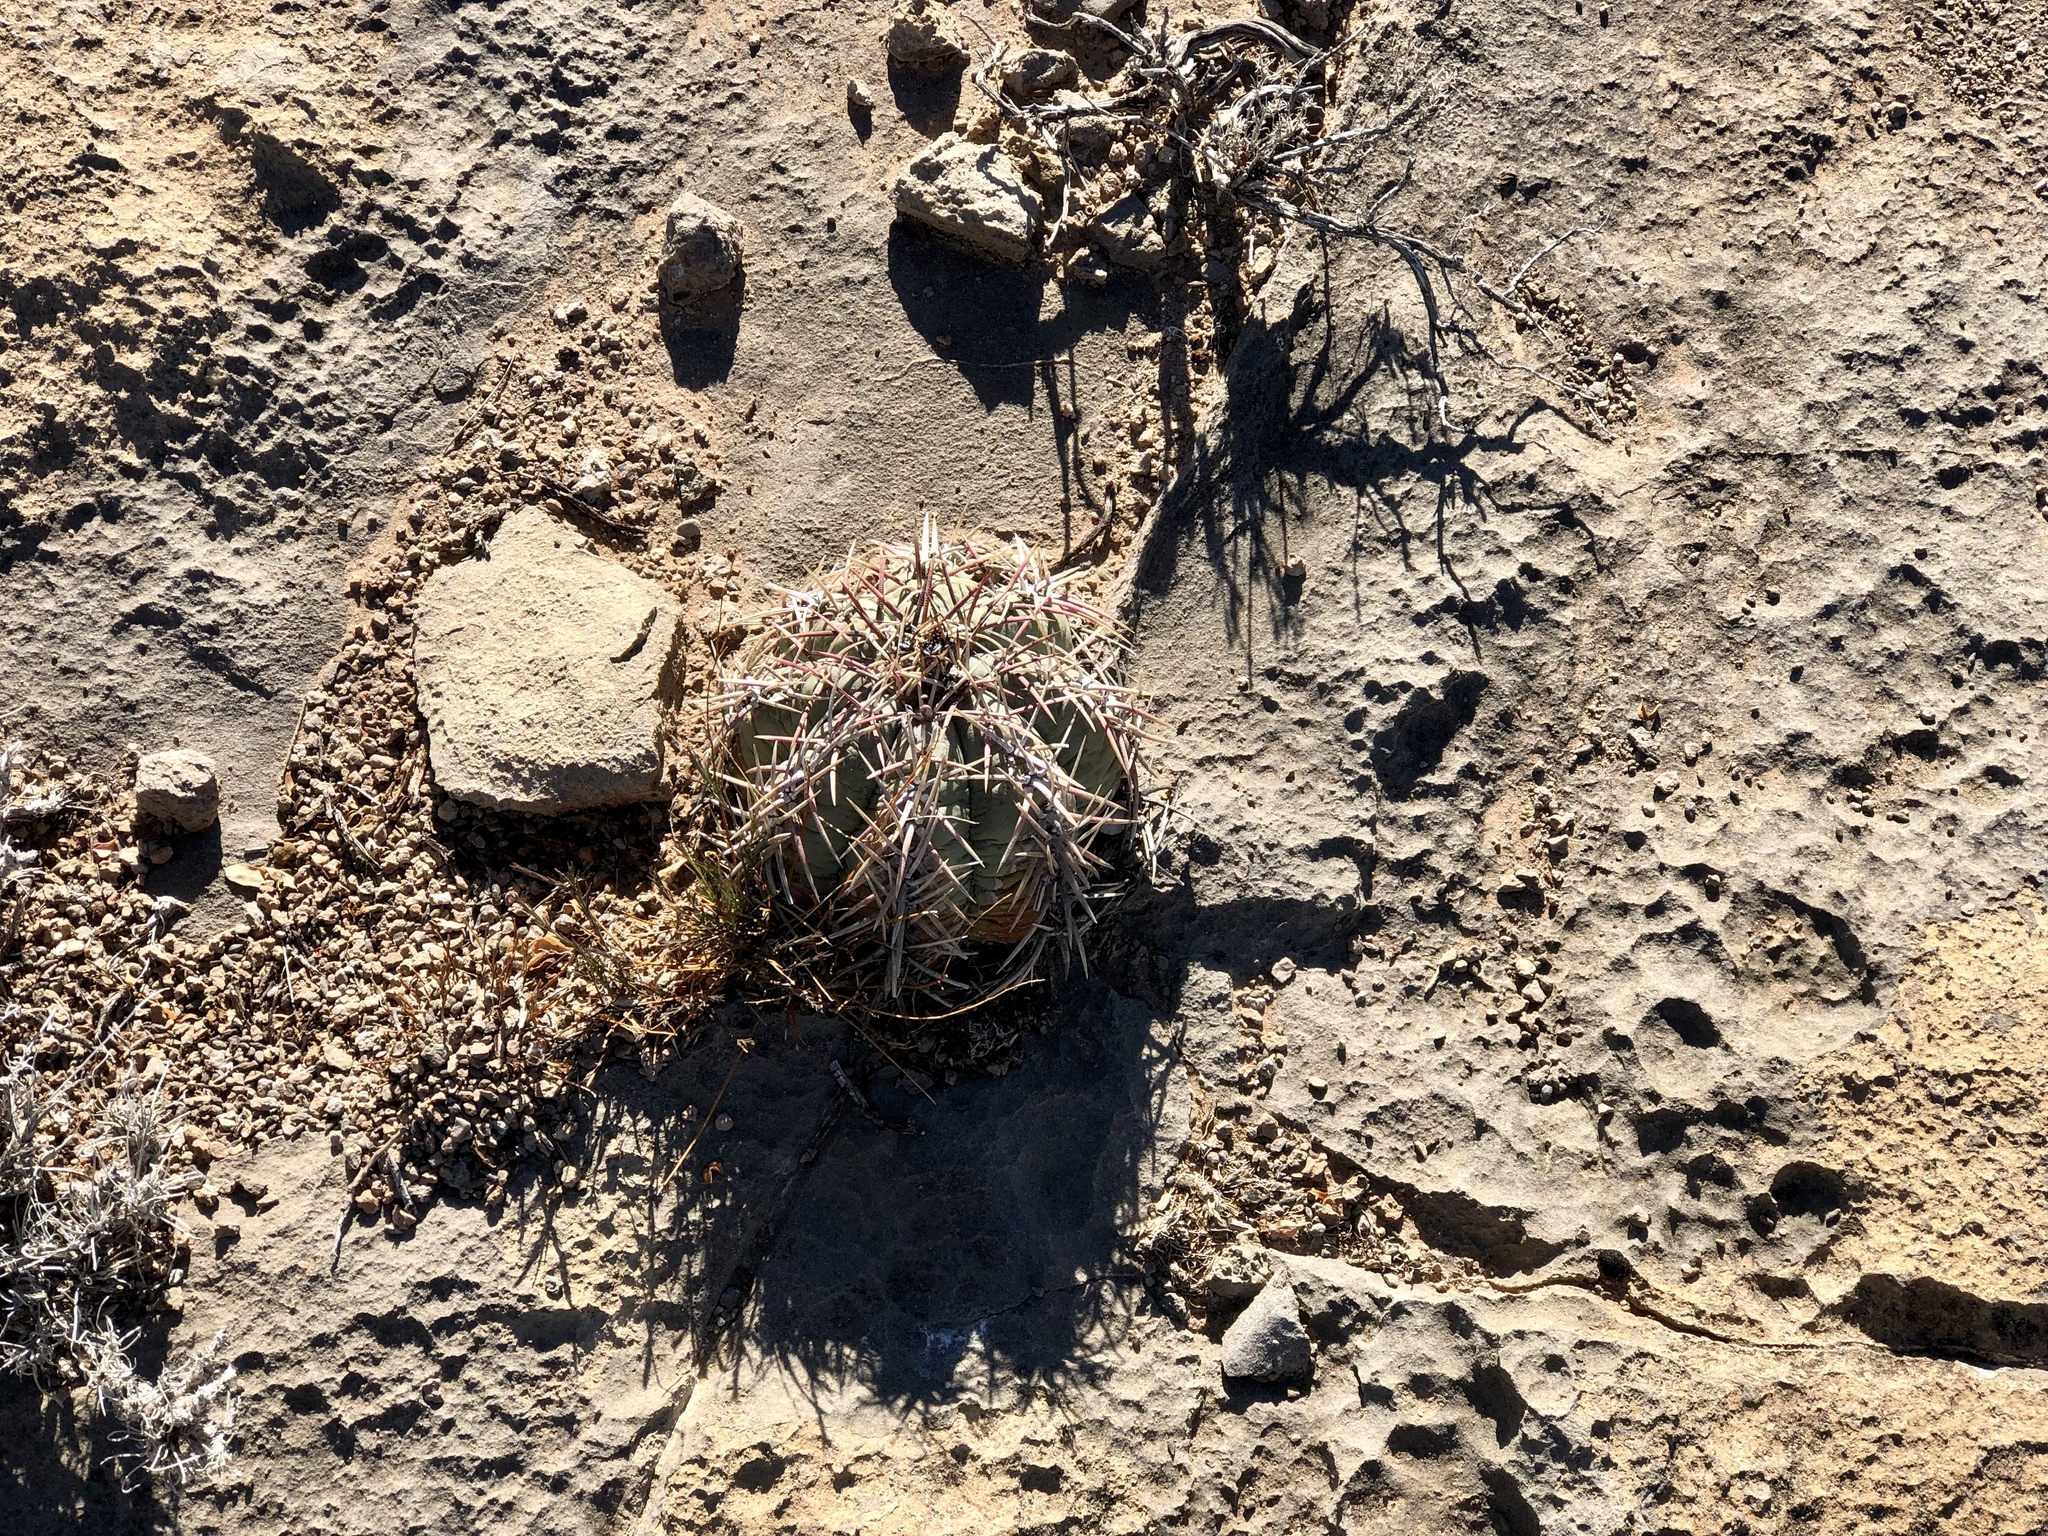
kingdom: Plantae
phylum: Tracheophyta
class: Magnoliopsida
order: Caryophyllales
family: Cactaceae
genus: Echinocactus
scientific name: Echinocactus horizonthalonius
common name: Devilshead
